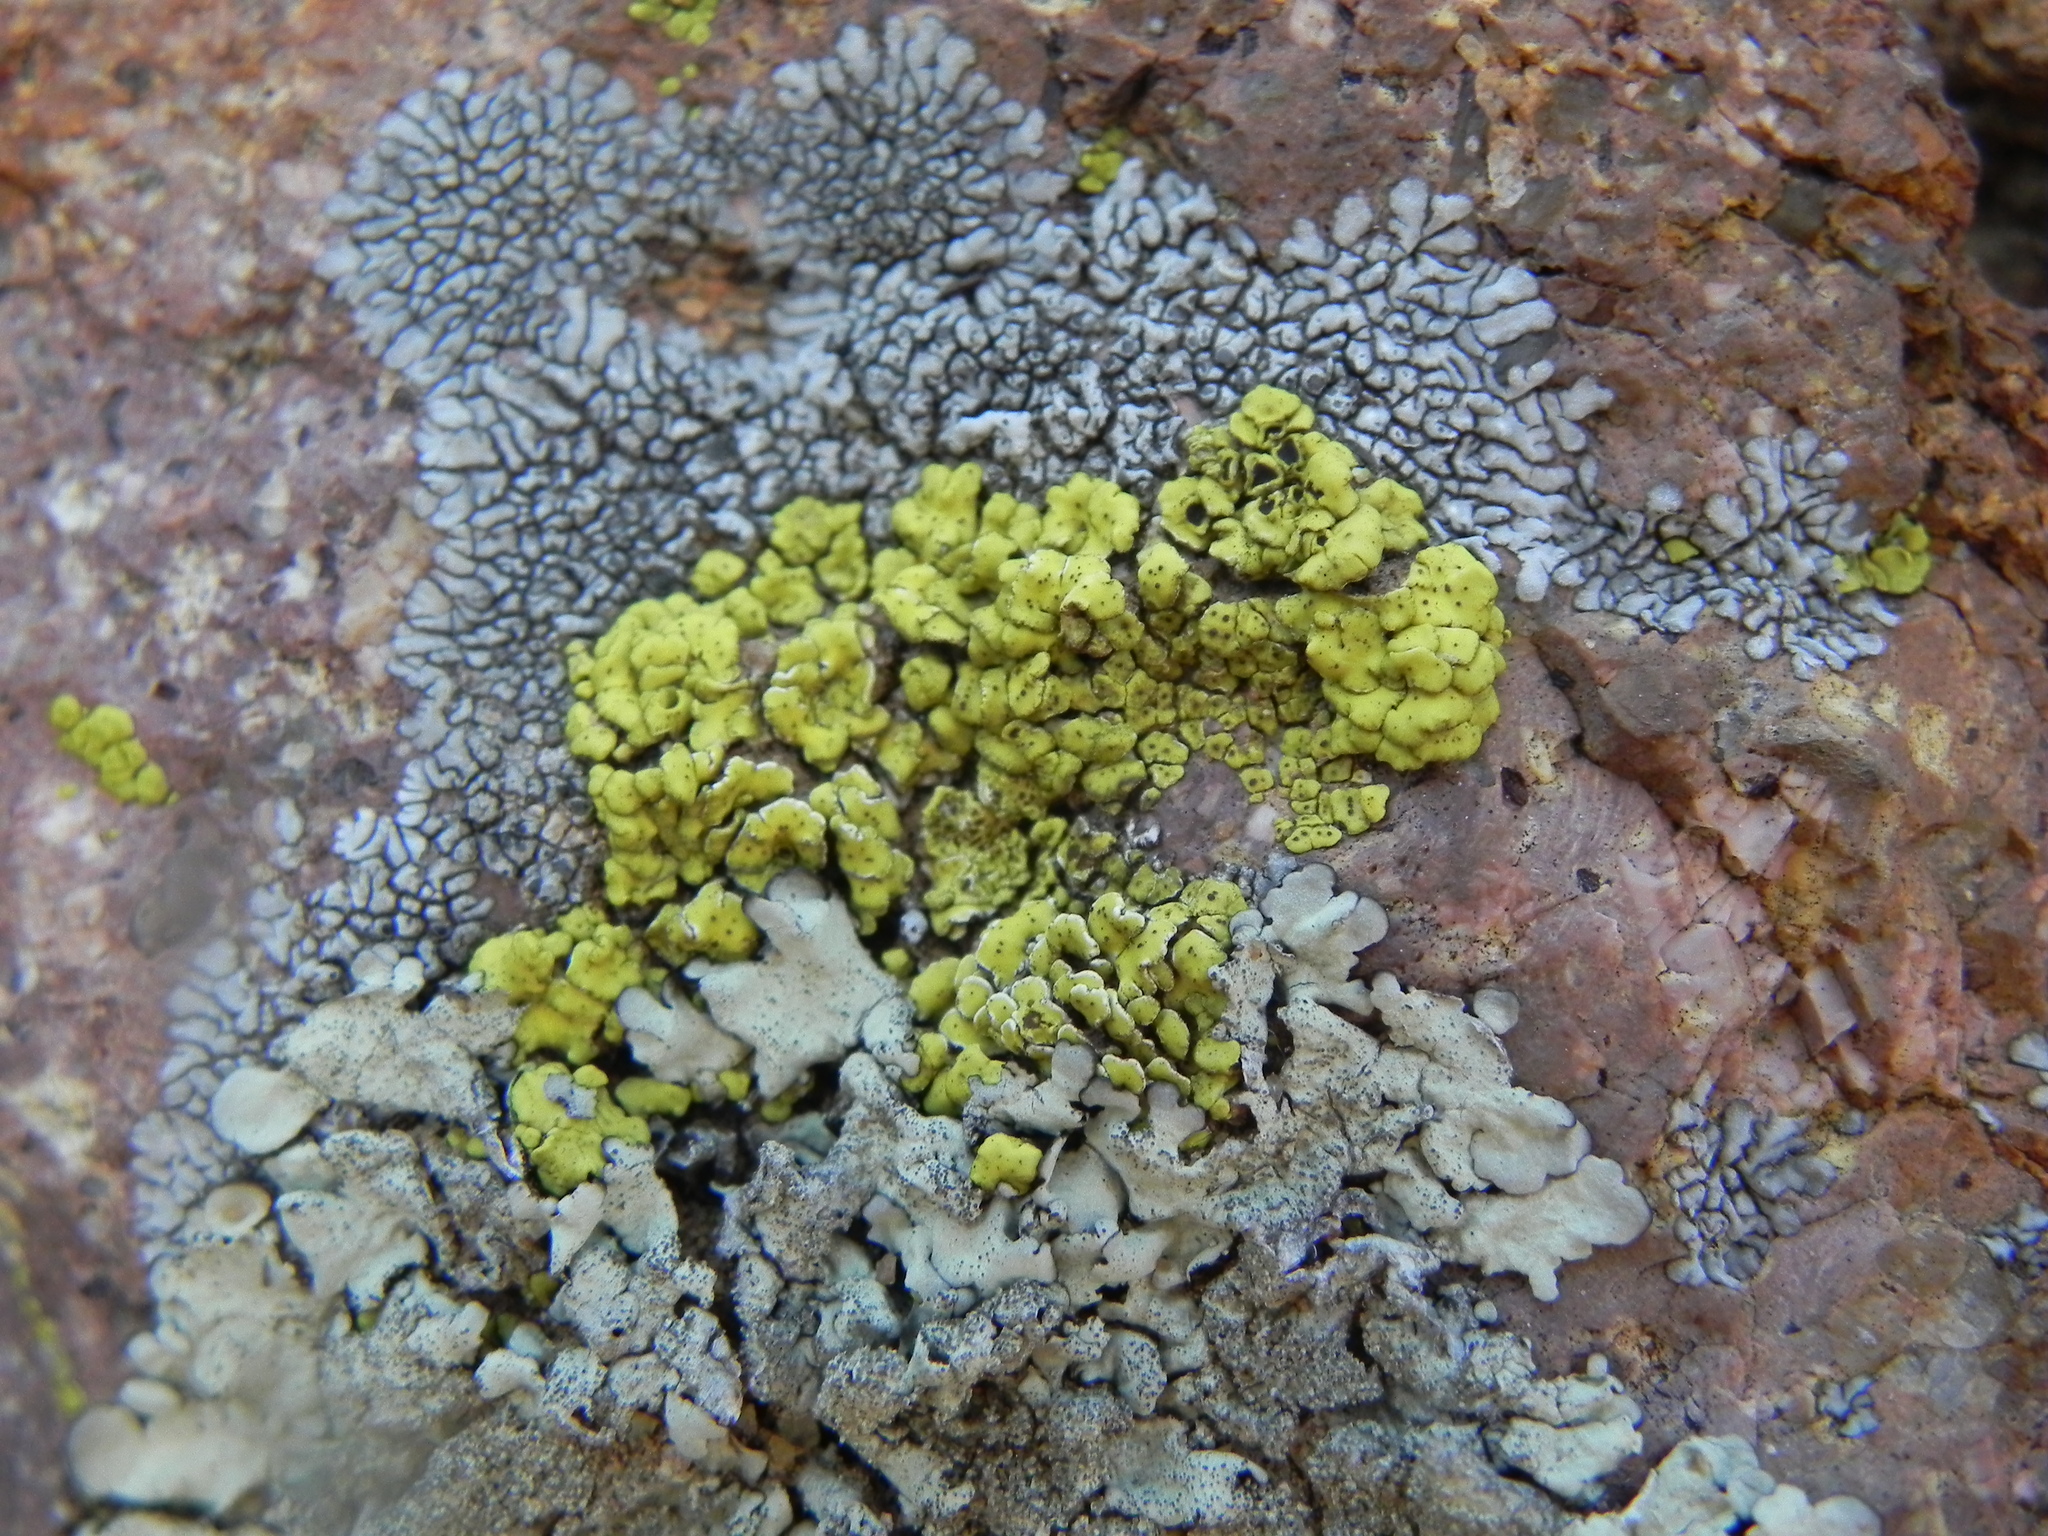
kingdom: Fungi
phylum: Ascomycota
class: Lecanoromycetes
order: Acarosporales
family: Acarosporaceae
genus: Acarospora
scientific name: Acarospora socialis
